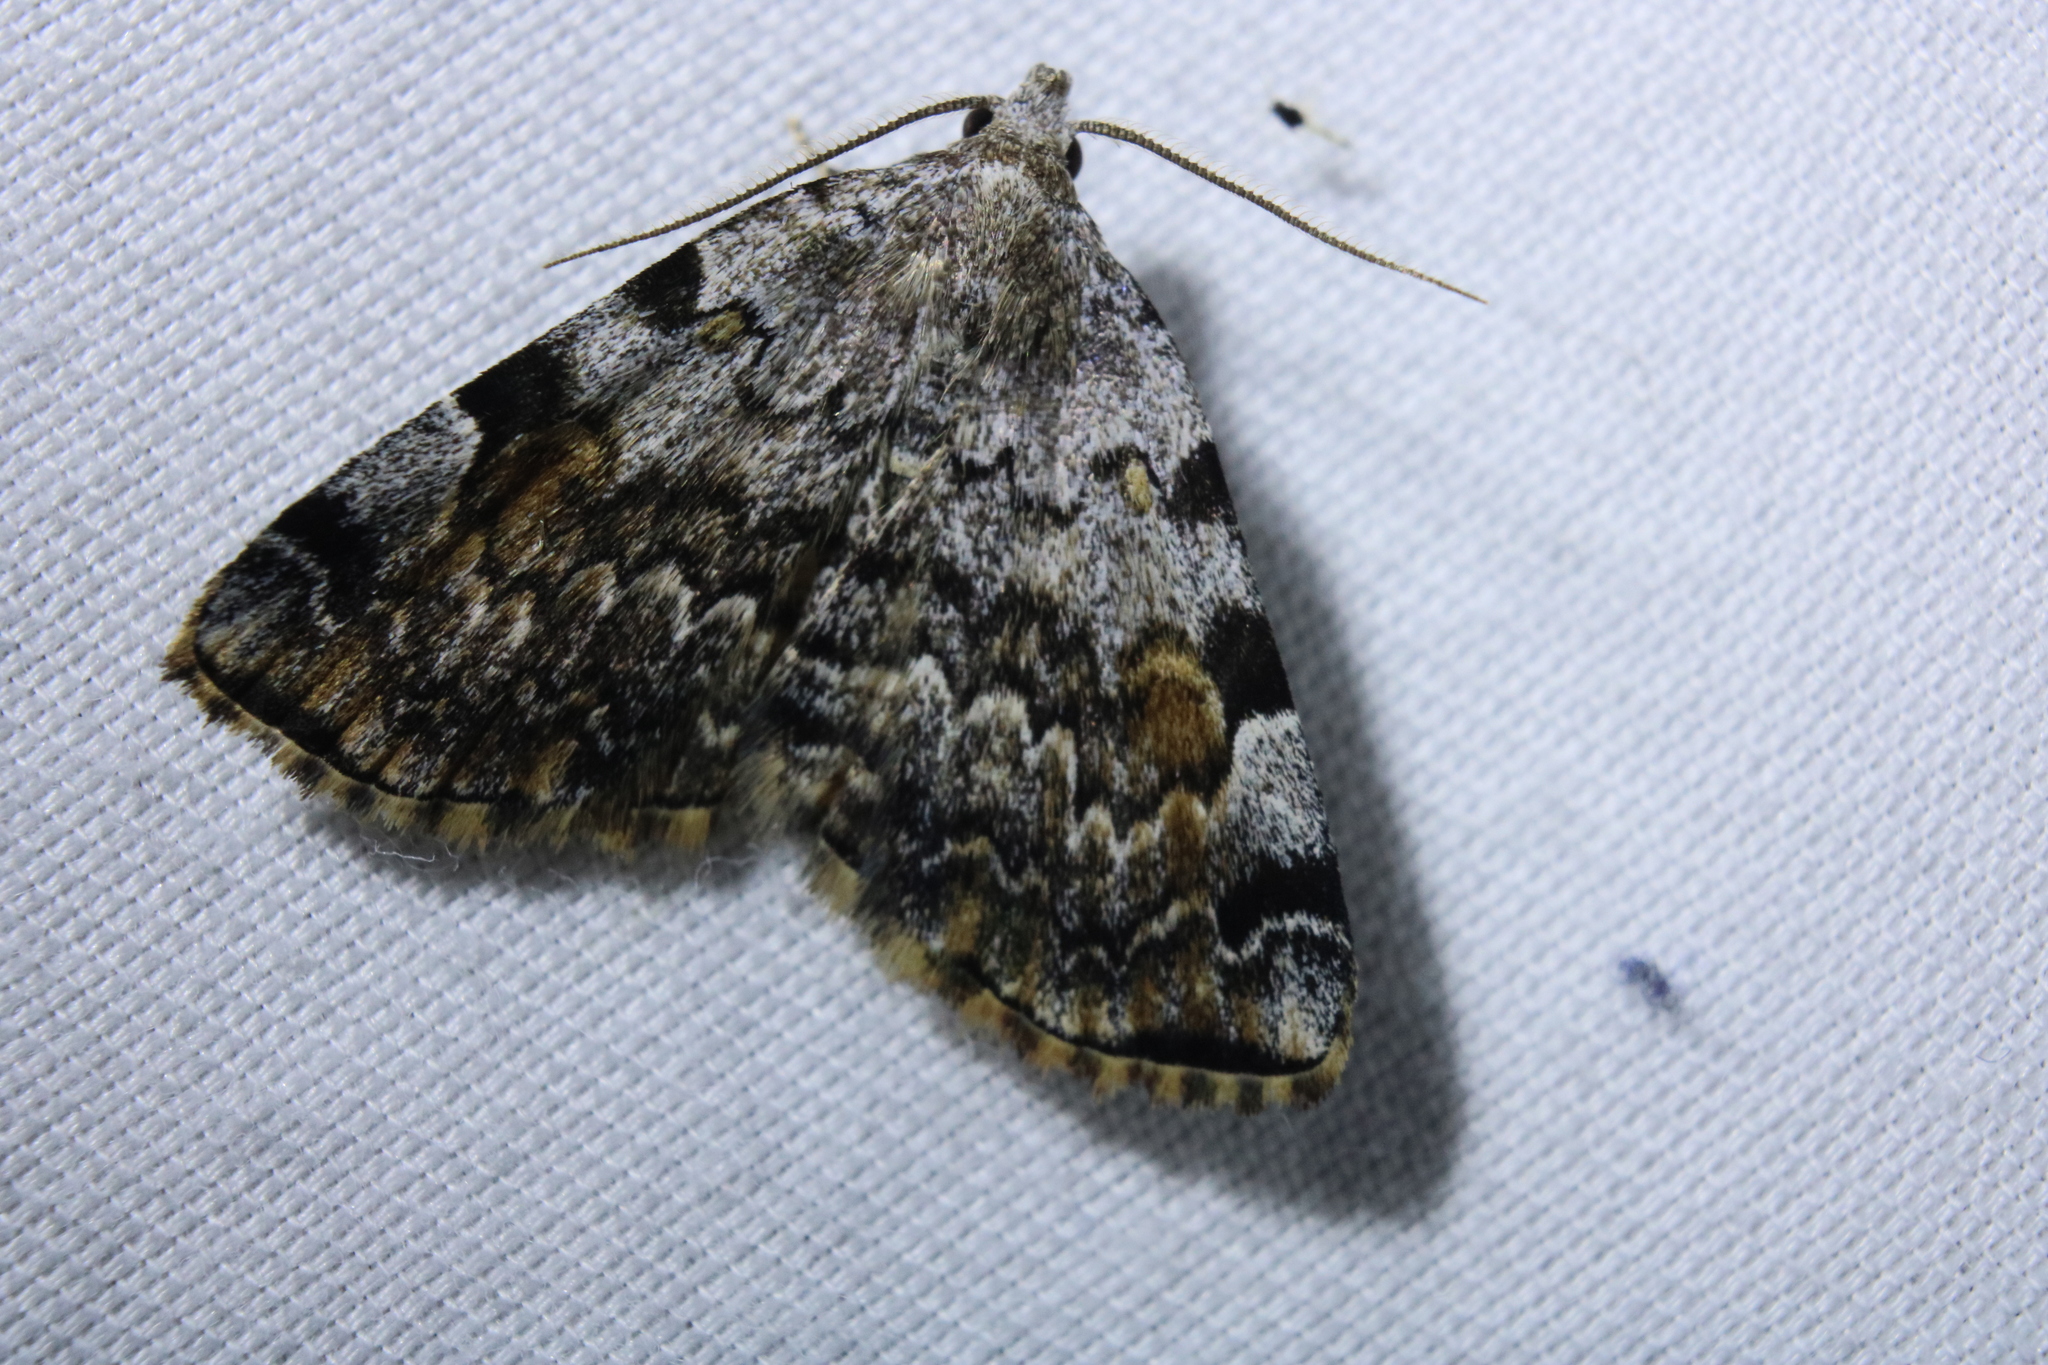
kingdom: Animalia
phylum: Arthropoda
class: Insecta
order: Lepidoptera
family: Erebidae
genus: Idia
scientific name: Idia americalis
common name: American idia moth
